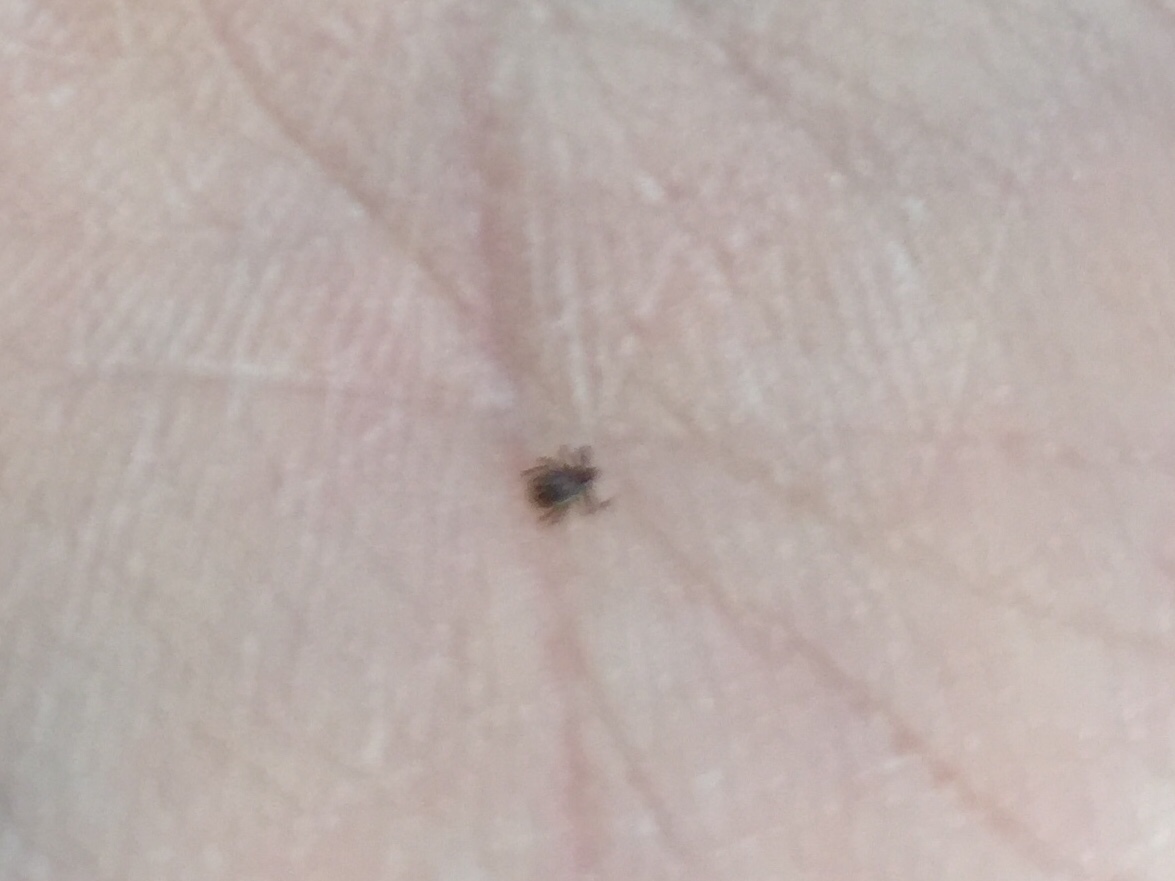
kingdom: Animalia
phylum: Arthropoda
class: Arachnida
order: Ixodida
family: Ixodidae
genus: Ixodes
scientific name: Ixodes ricinus
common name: Castor bean tick
